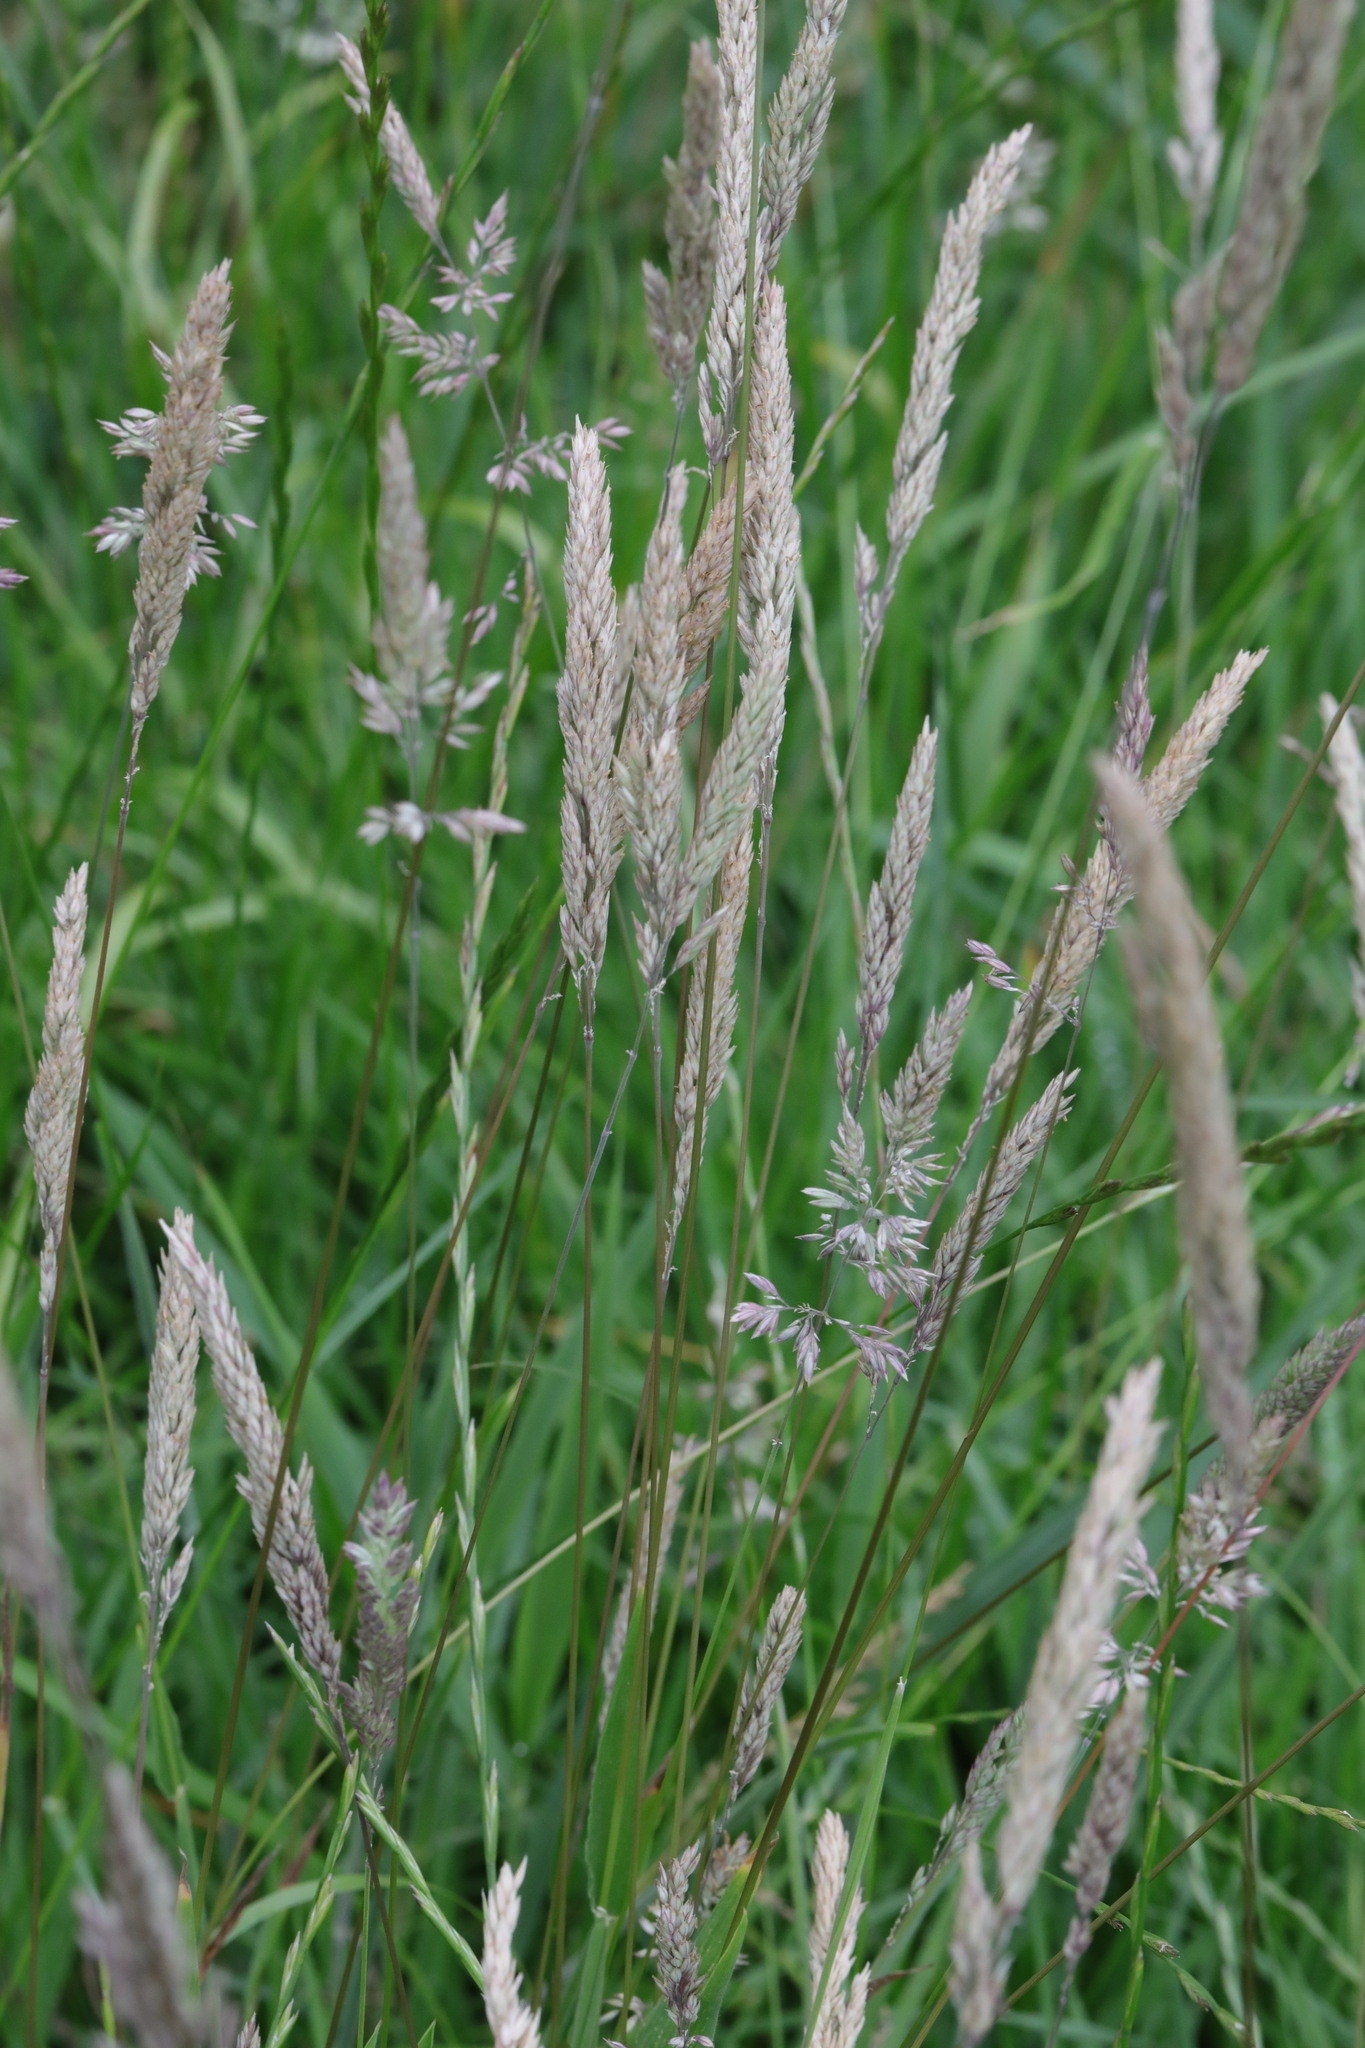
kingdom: Plantae
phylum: Tracheophyta
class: Liliopsida
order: Poales
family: Poaceae
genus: Holcus
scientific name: Holcus lanatus
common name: Yorkshire-fog
